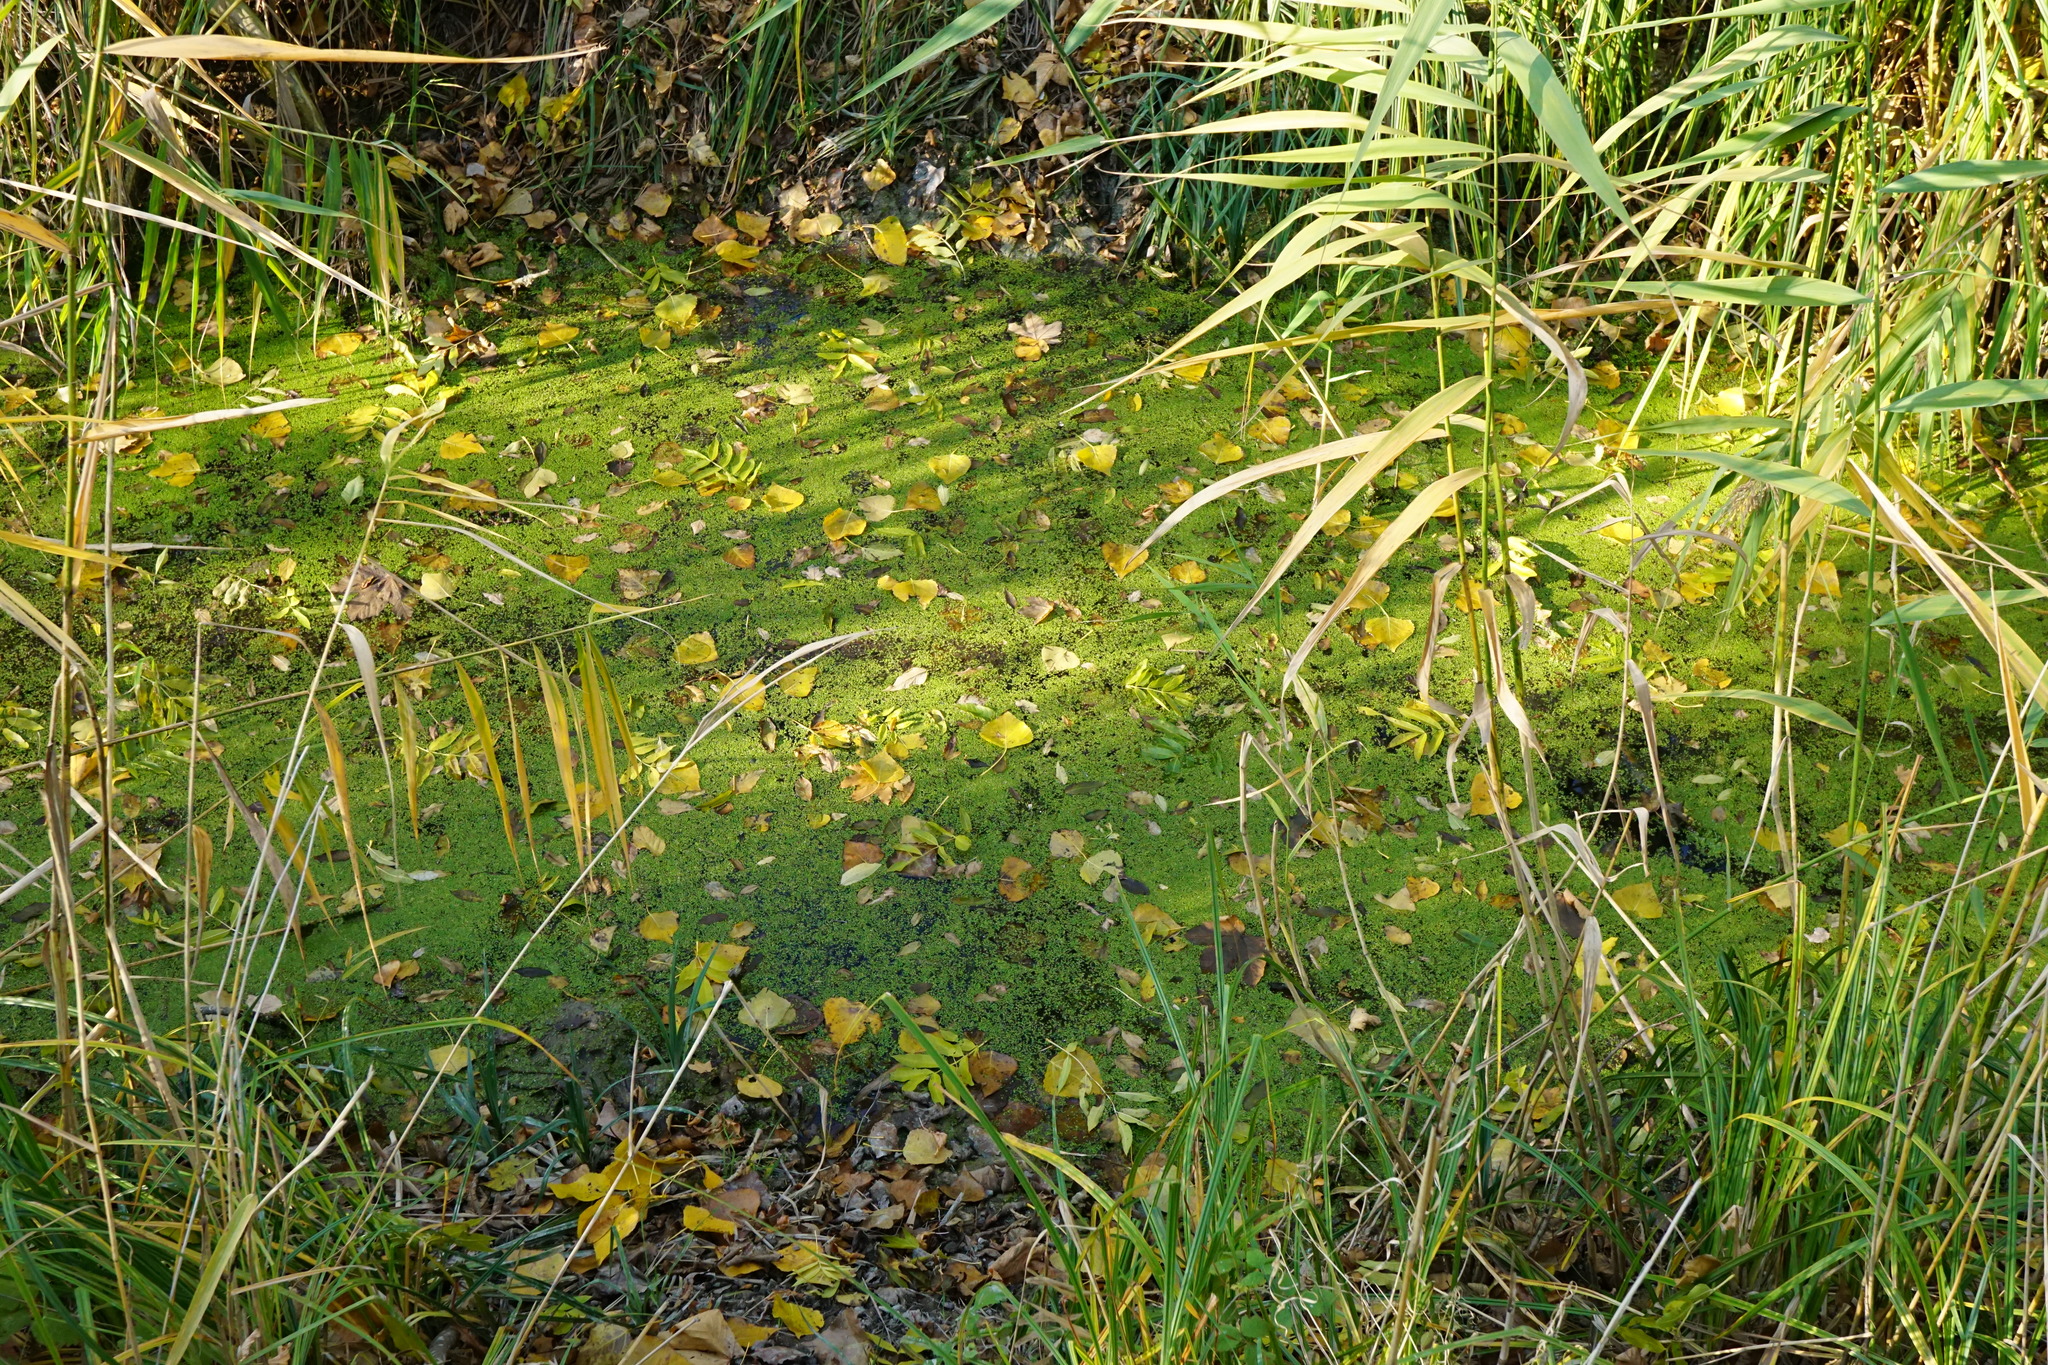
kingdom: Plantae
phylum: Tracheophyta
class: Liliopsida
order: Alismatales
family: Araceae
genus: Lemna
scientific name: Lemna minor
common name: Common duckweed
